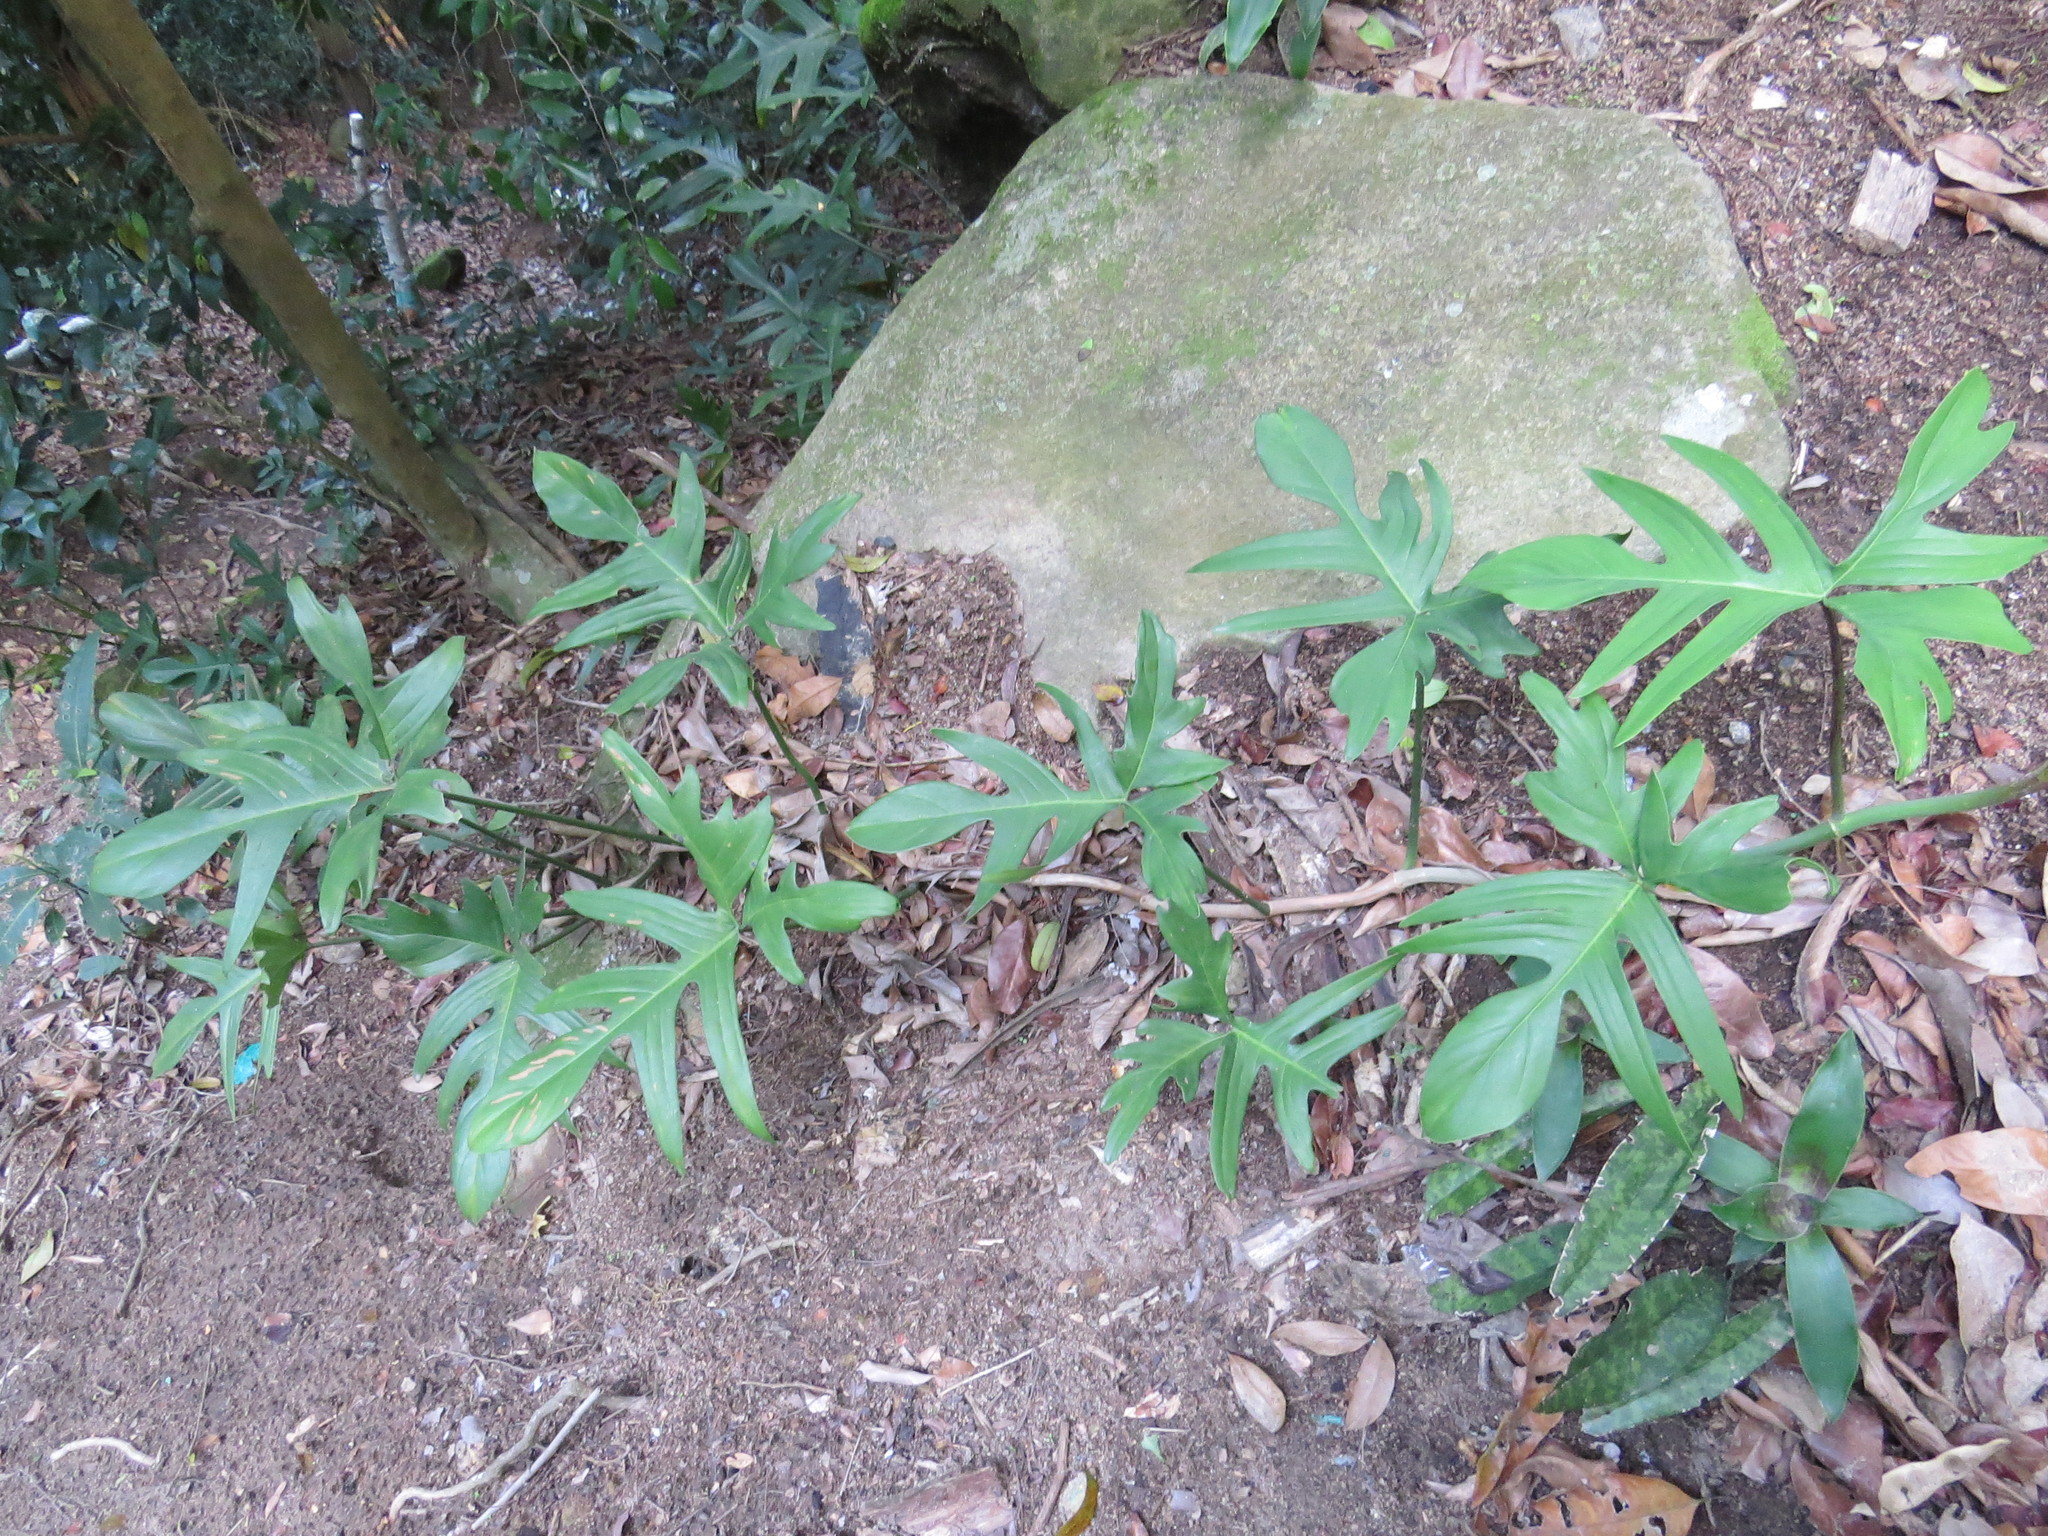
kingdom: Plantae
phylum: Tracheophyta
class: Liliopsida
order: Alismatales
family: Araceae
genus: Philodendron
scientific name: Philodendron pedatum
